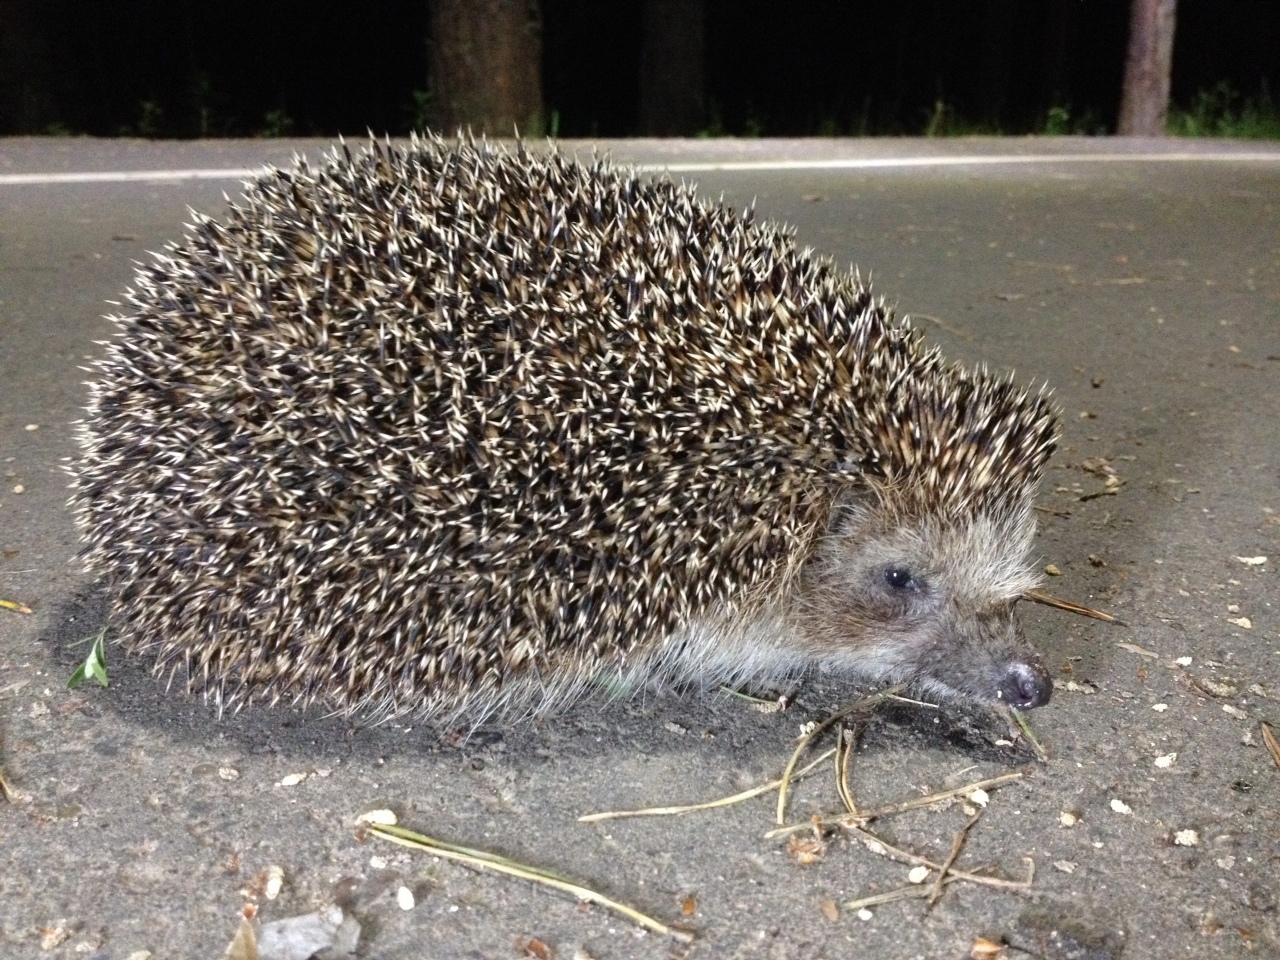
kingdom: Animalia
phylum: Chordata
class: Mammalia
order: Erinaceomorpha
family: Erinaceidae
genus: Erinaceus
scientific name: Erinaceus roumanicus
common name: Northern white-breasted hedgehog
